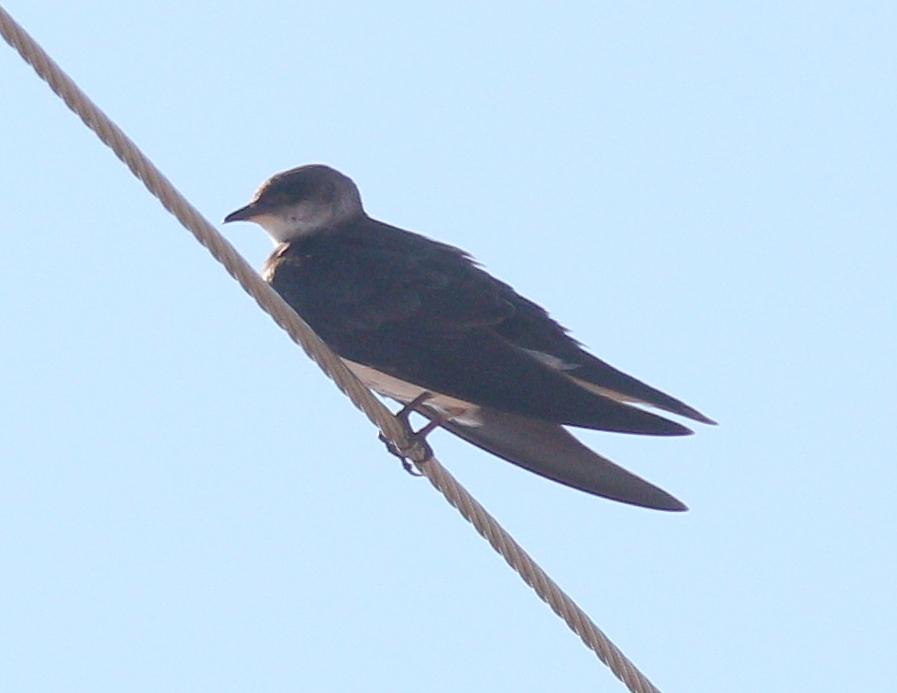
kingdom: Animalia
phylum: Chordata
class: Aves
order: Passeriformes
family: Hirundinidae
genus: Progne
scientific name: Progne tapera
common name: Brown-chested martin
